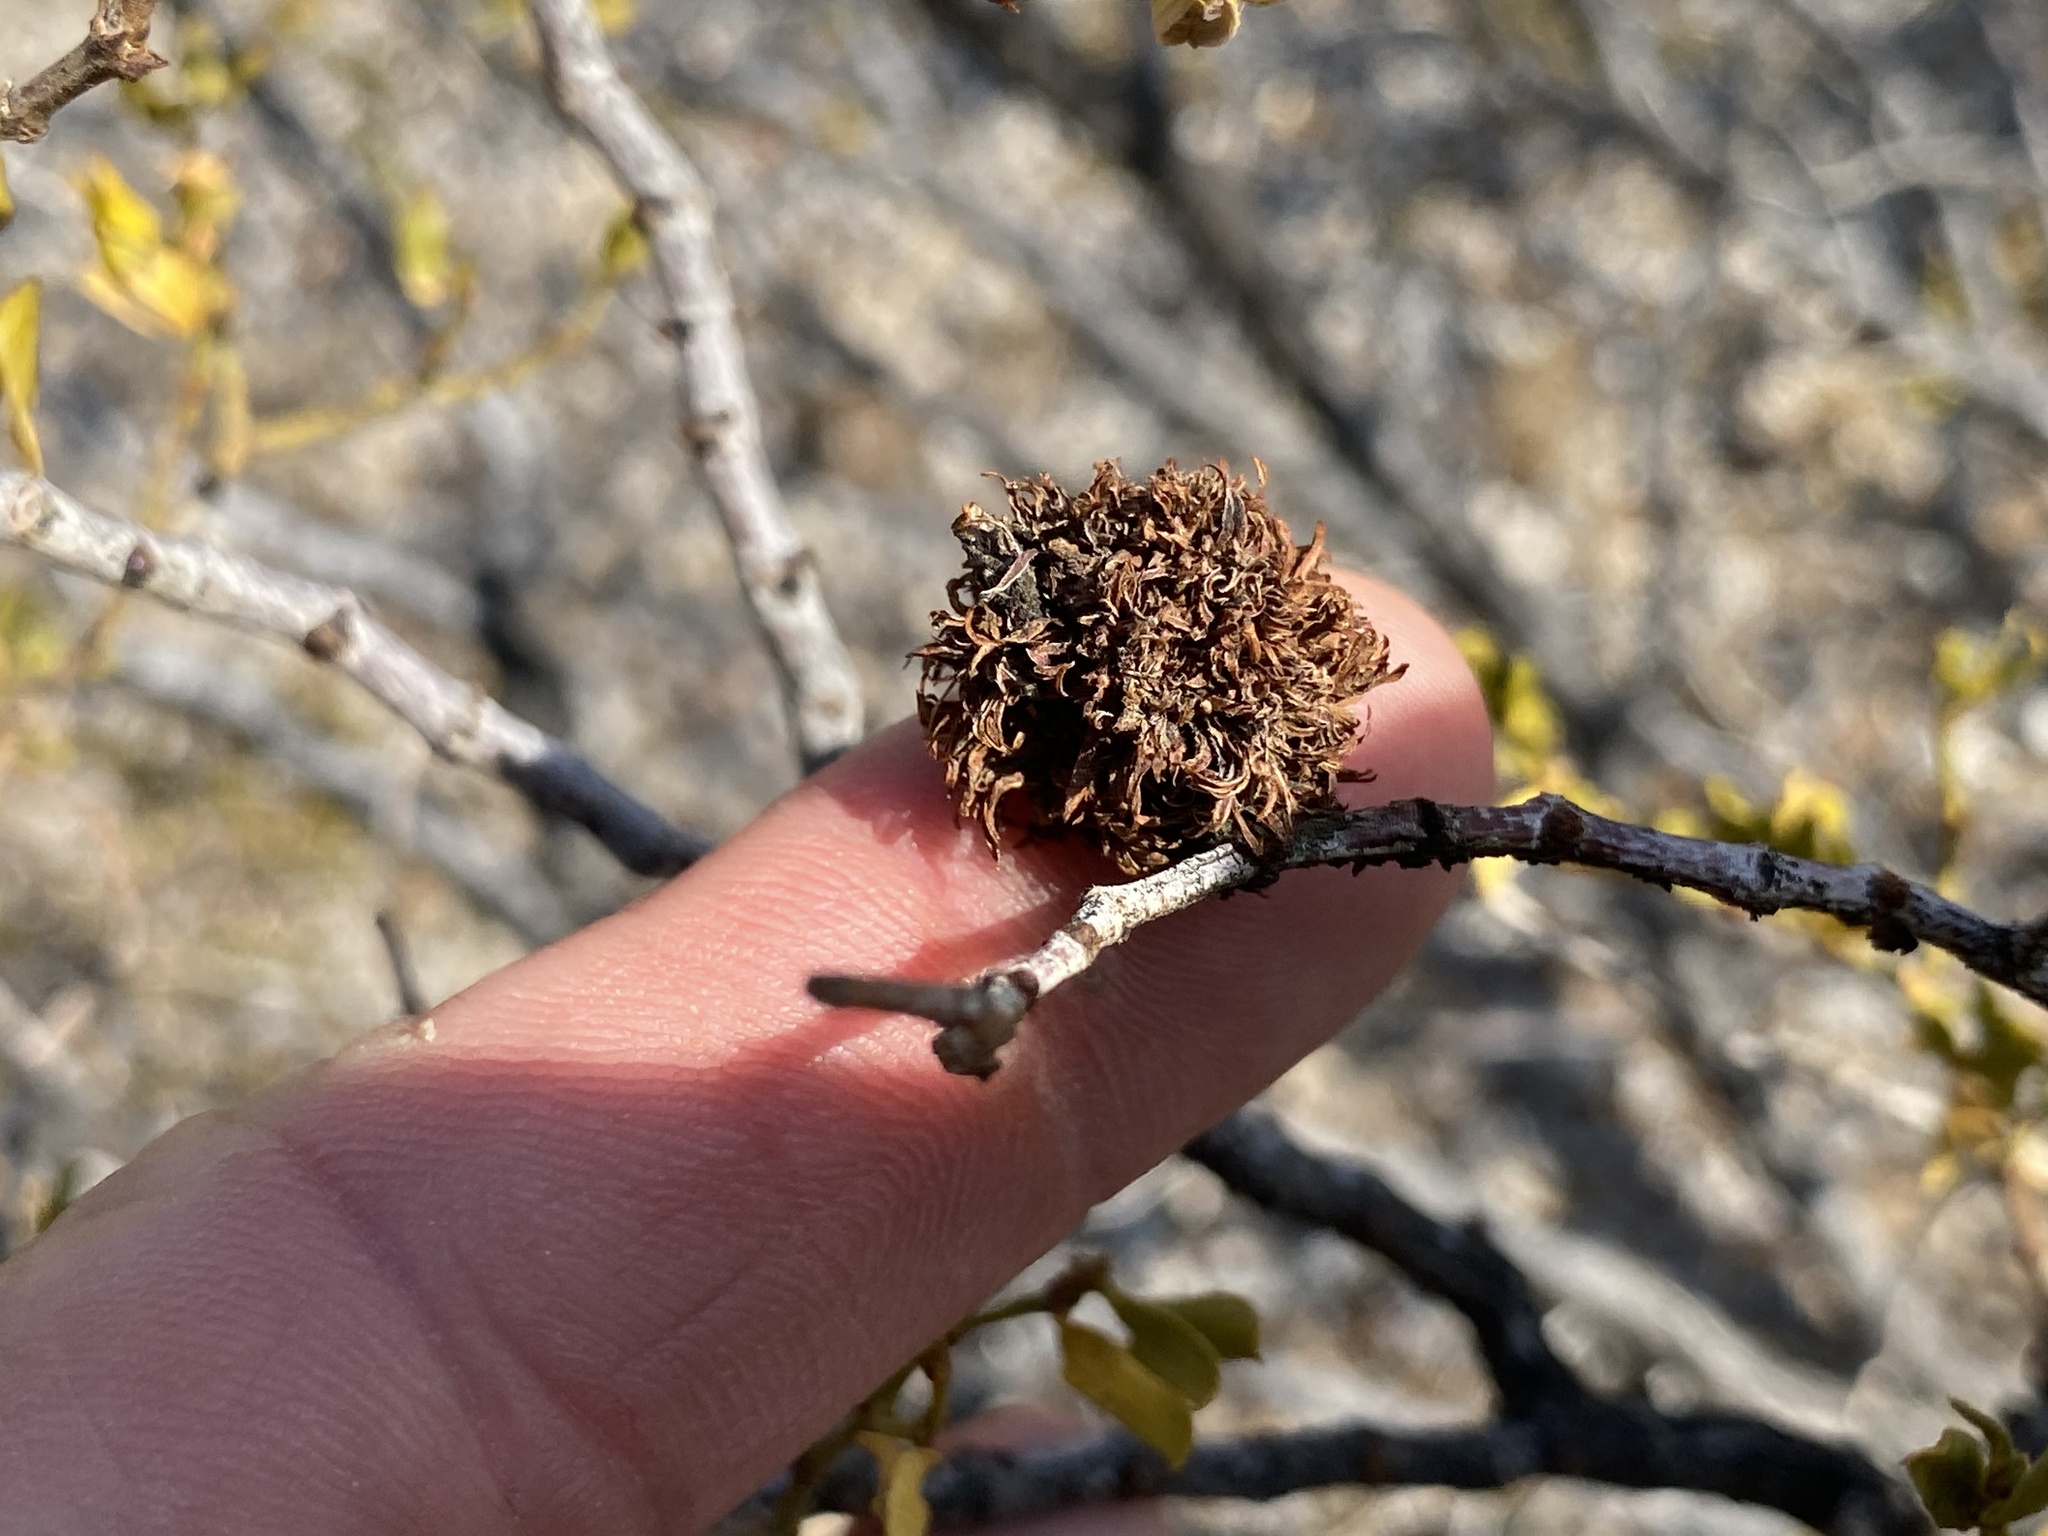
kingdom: Animalia
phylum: Arthropoda
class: Insecta
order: Diptera
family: Cecidomyiidae
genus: Asphondylia
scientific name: Asphondylia auripila
